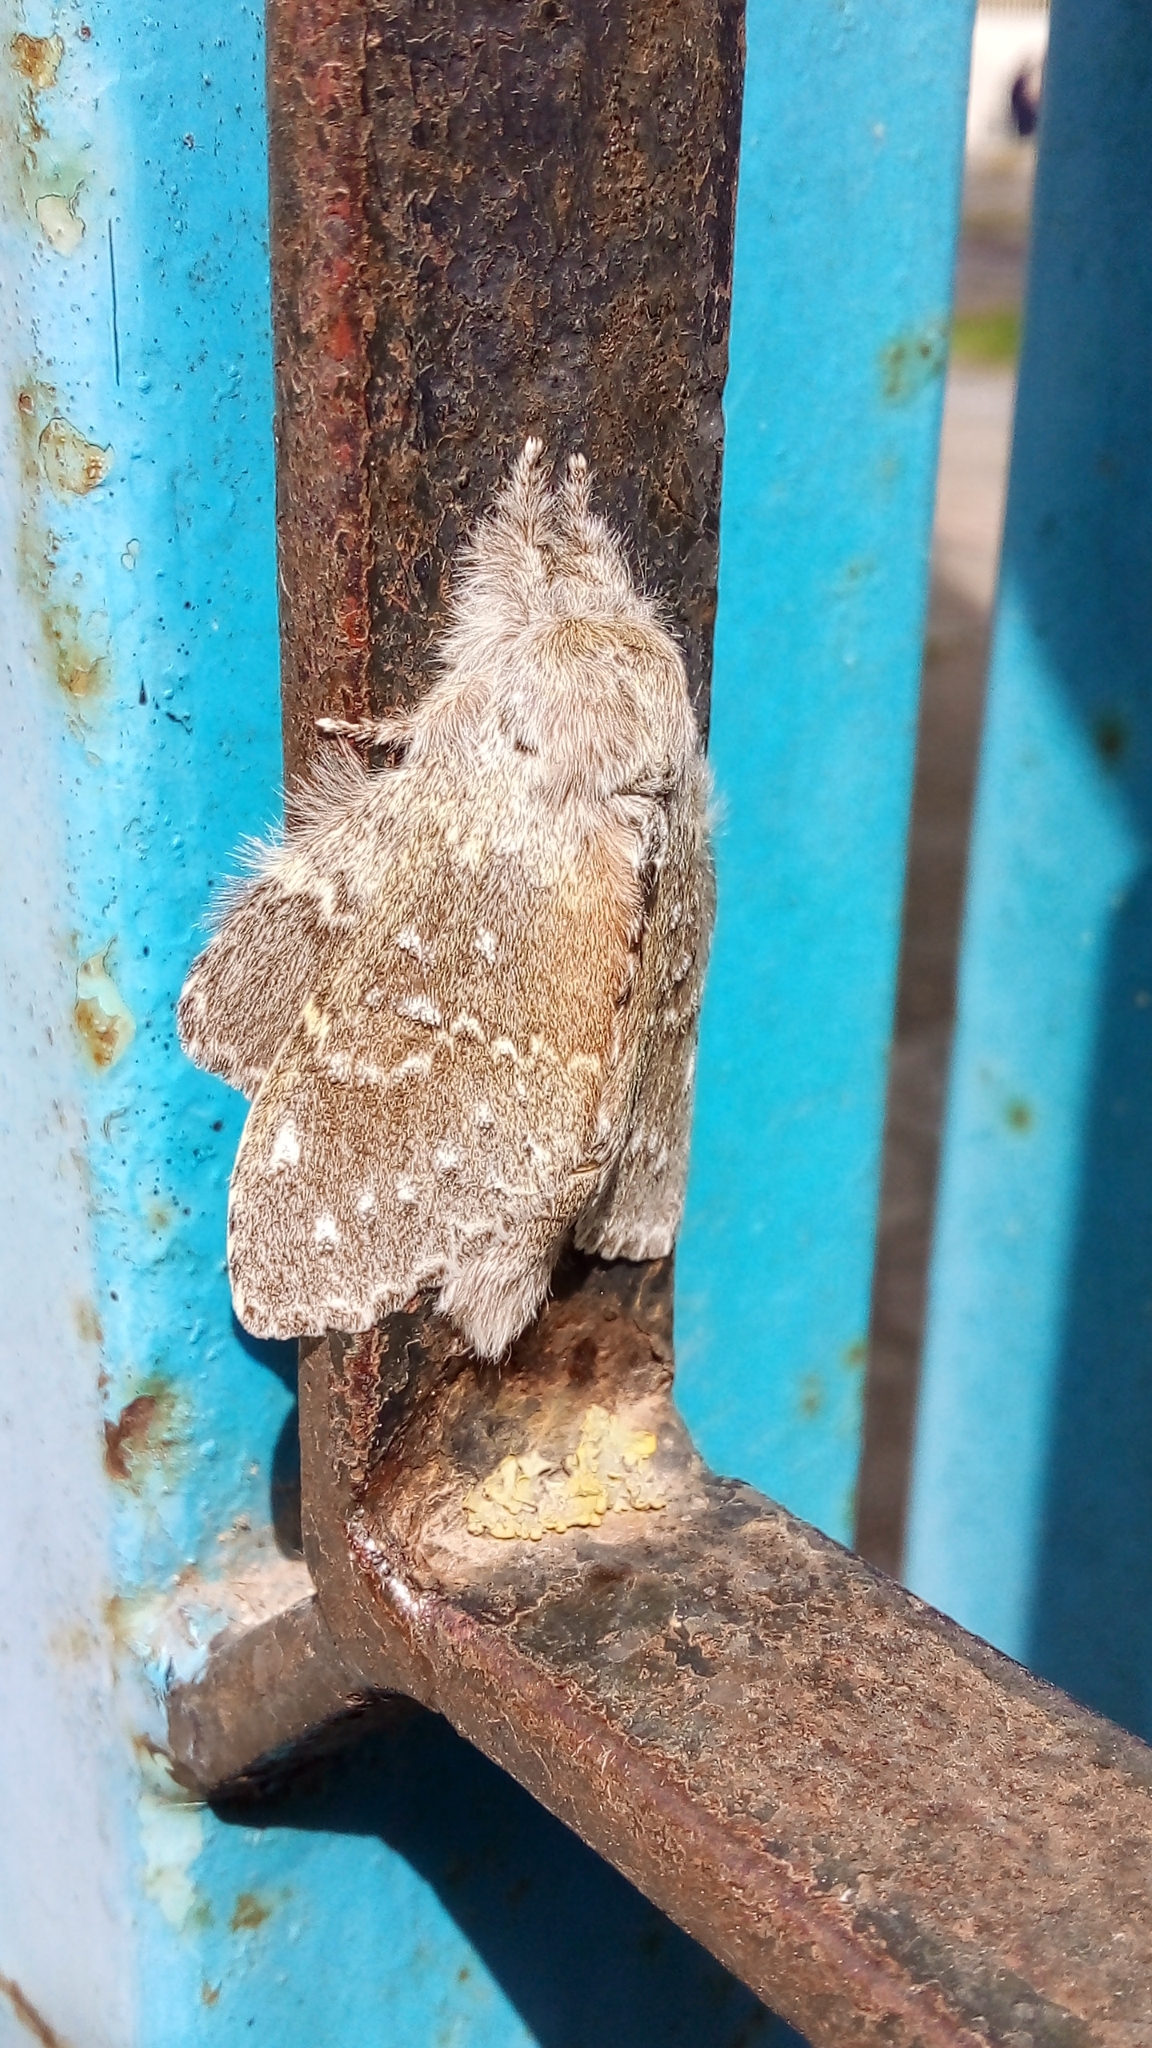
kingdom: Animalia
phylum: Arthropoda
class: Insecta
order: Lepidoptera
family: Notodontidae
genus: Stauropus
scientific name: Stauropus fagi
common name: Lobster moth
